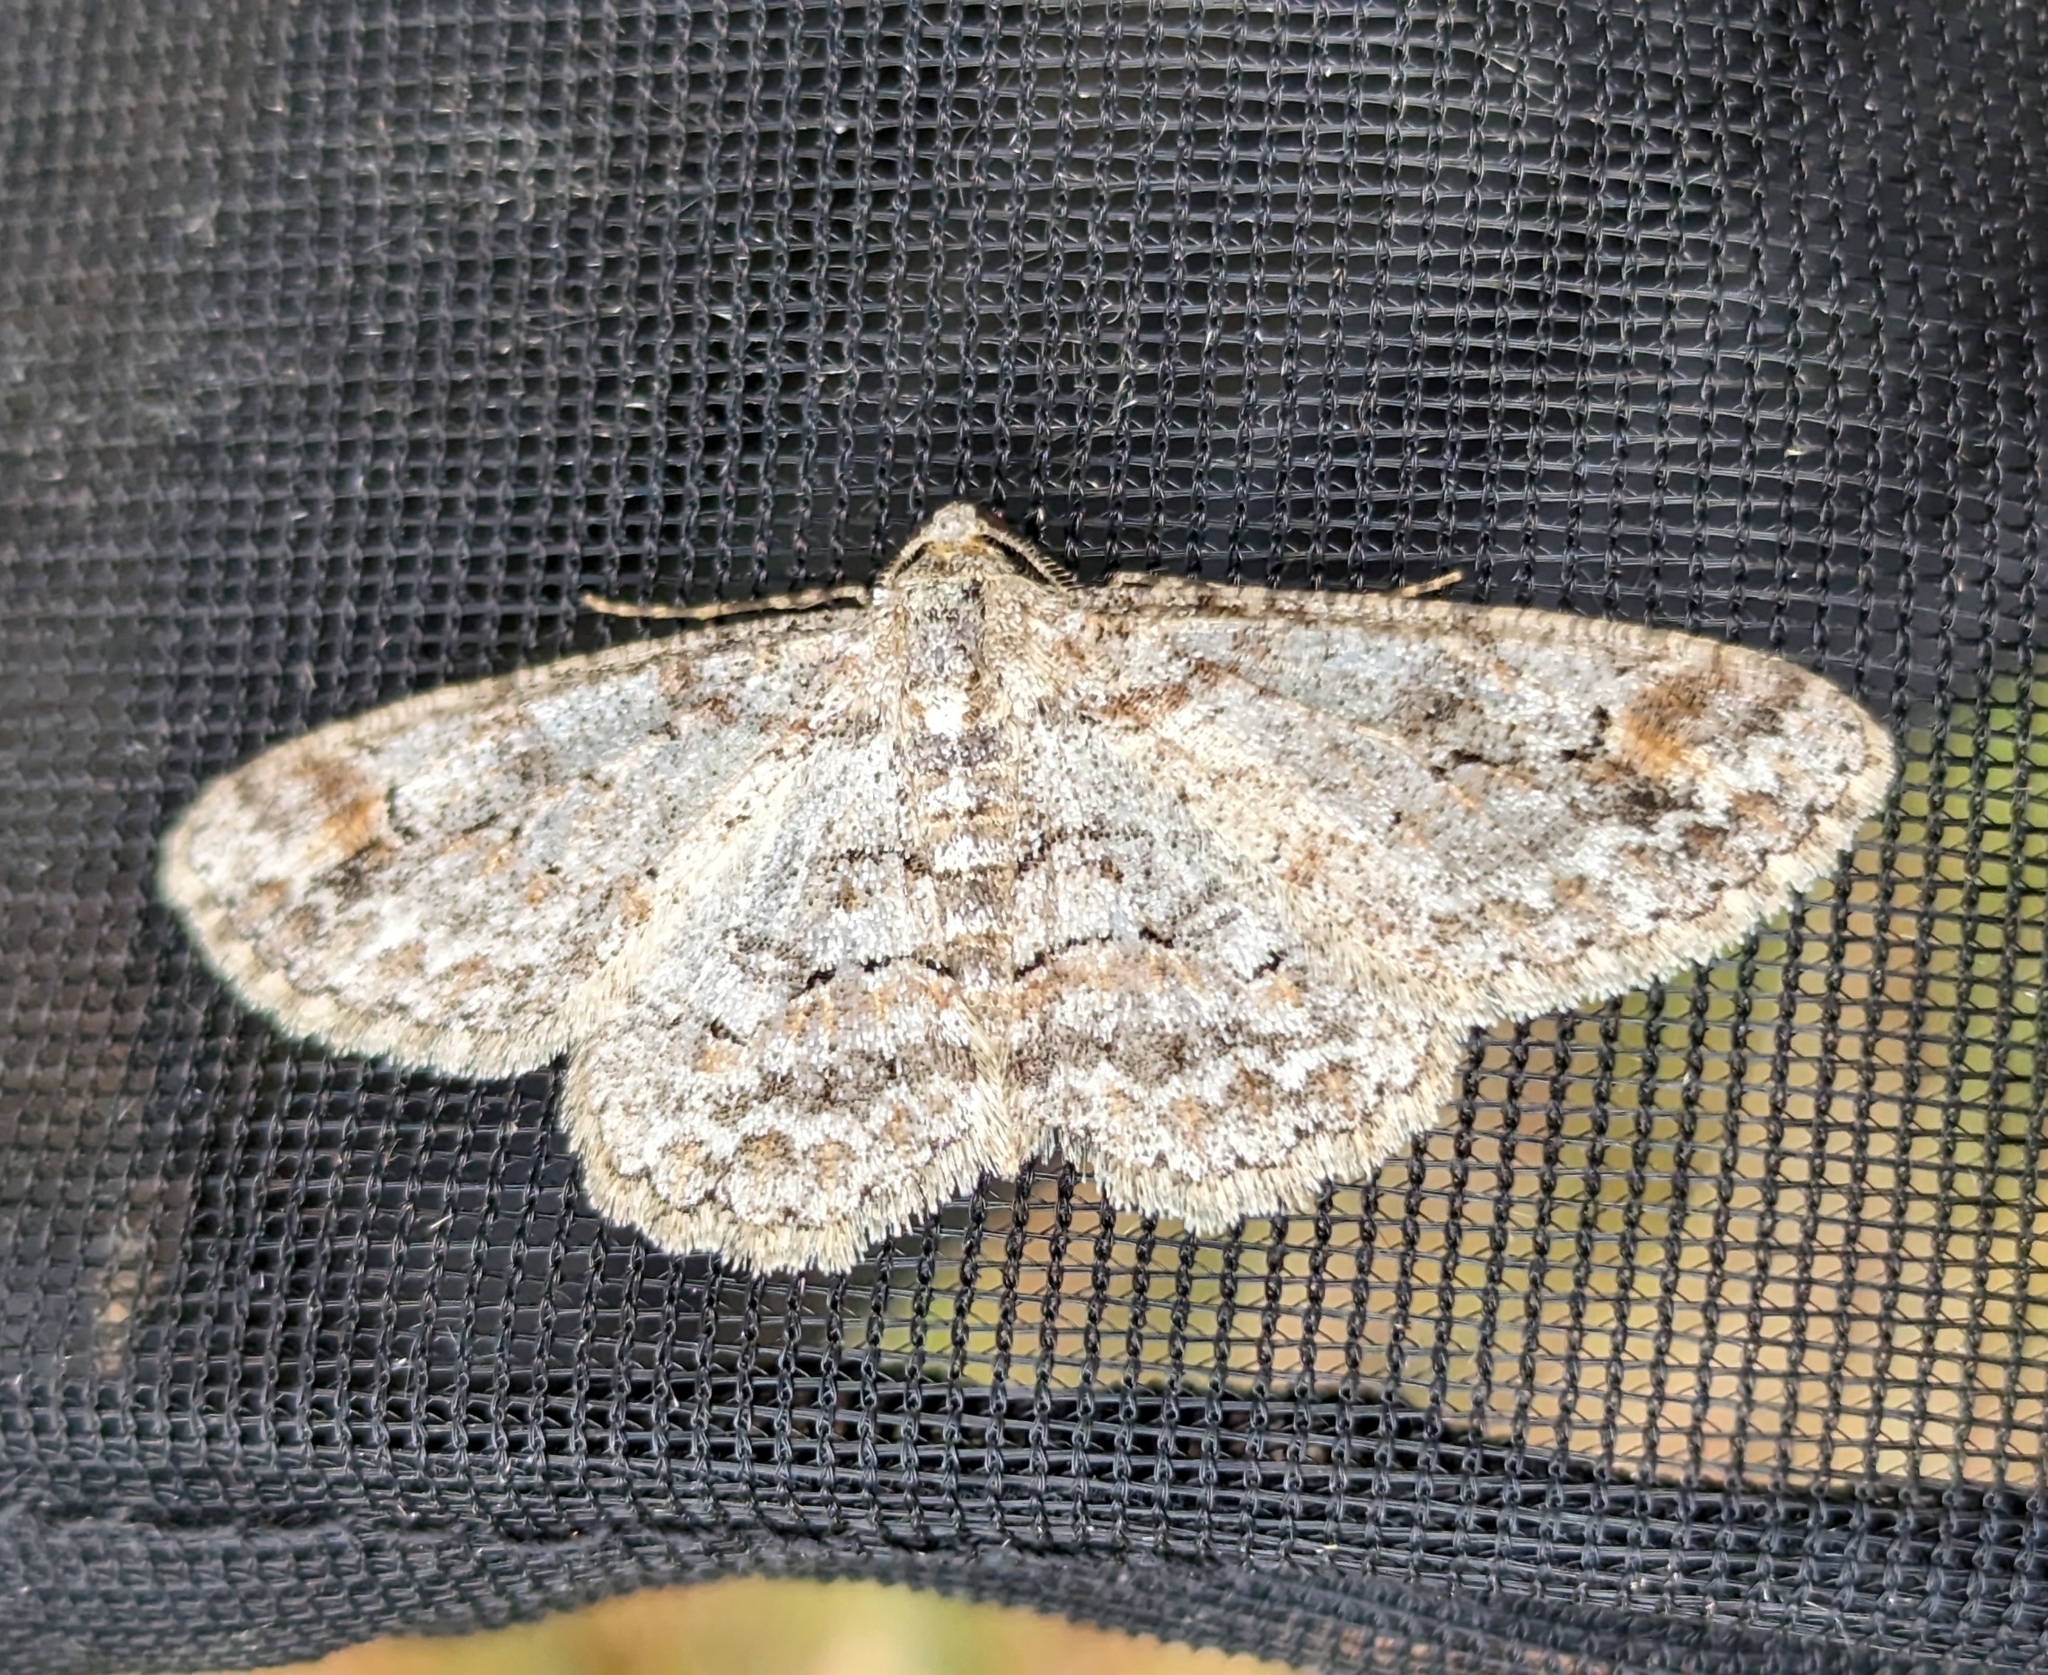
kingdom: Animalia
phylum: Arthropoda
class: Insecta
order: Lepidoptera
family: Geometridae
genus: Iridopsis
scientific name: Iridopsis emasculatum
